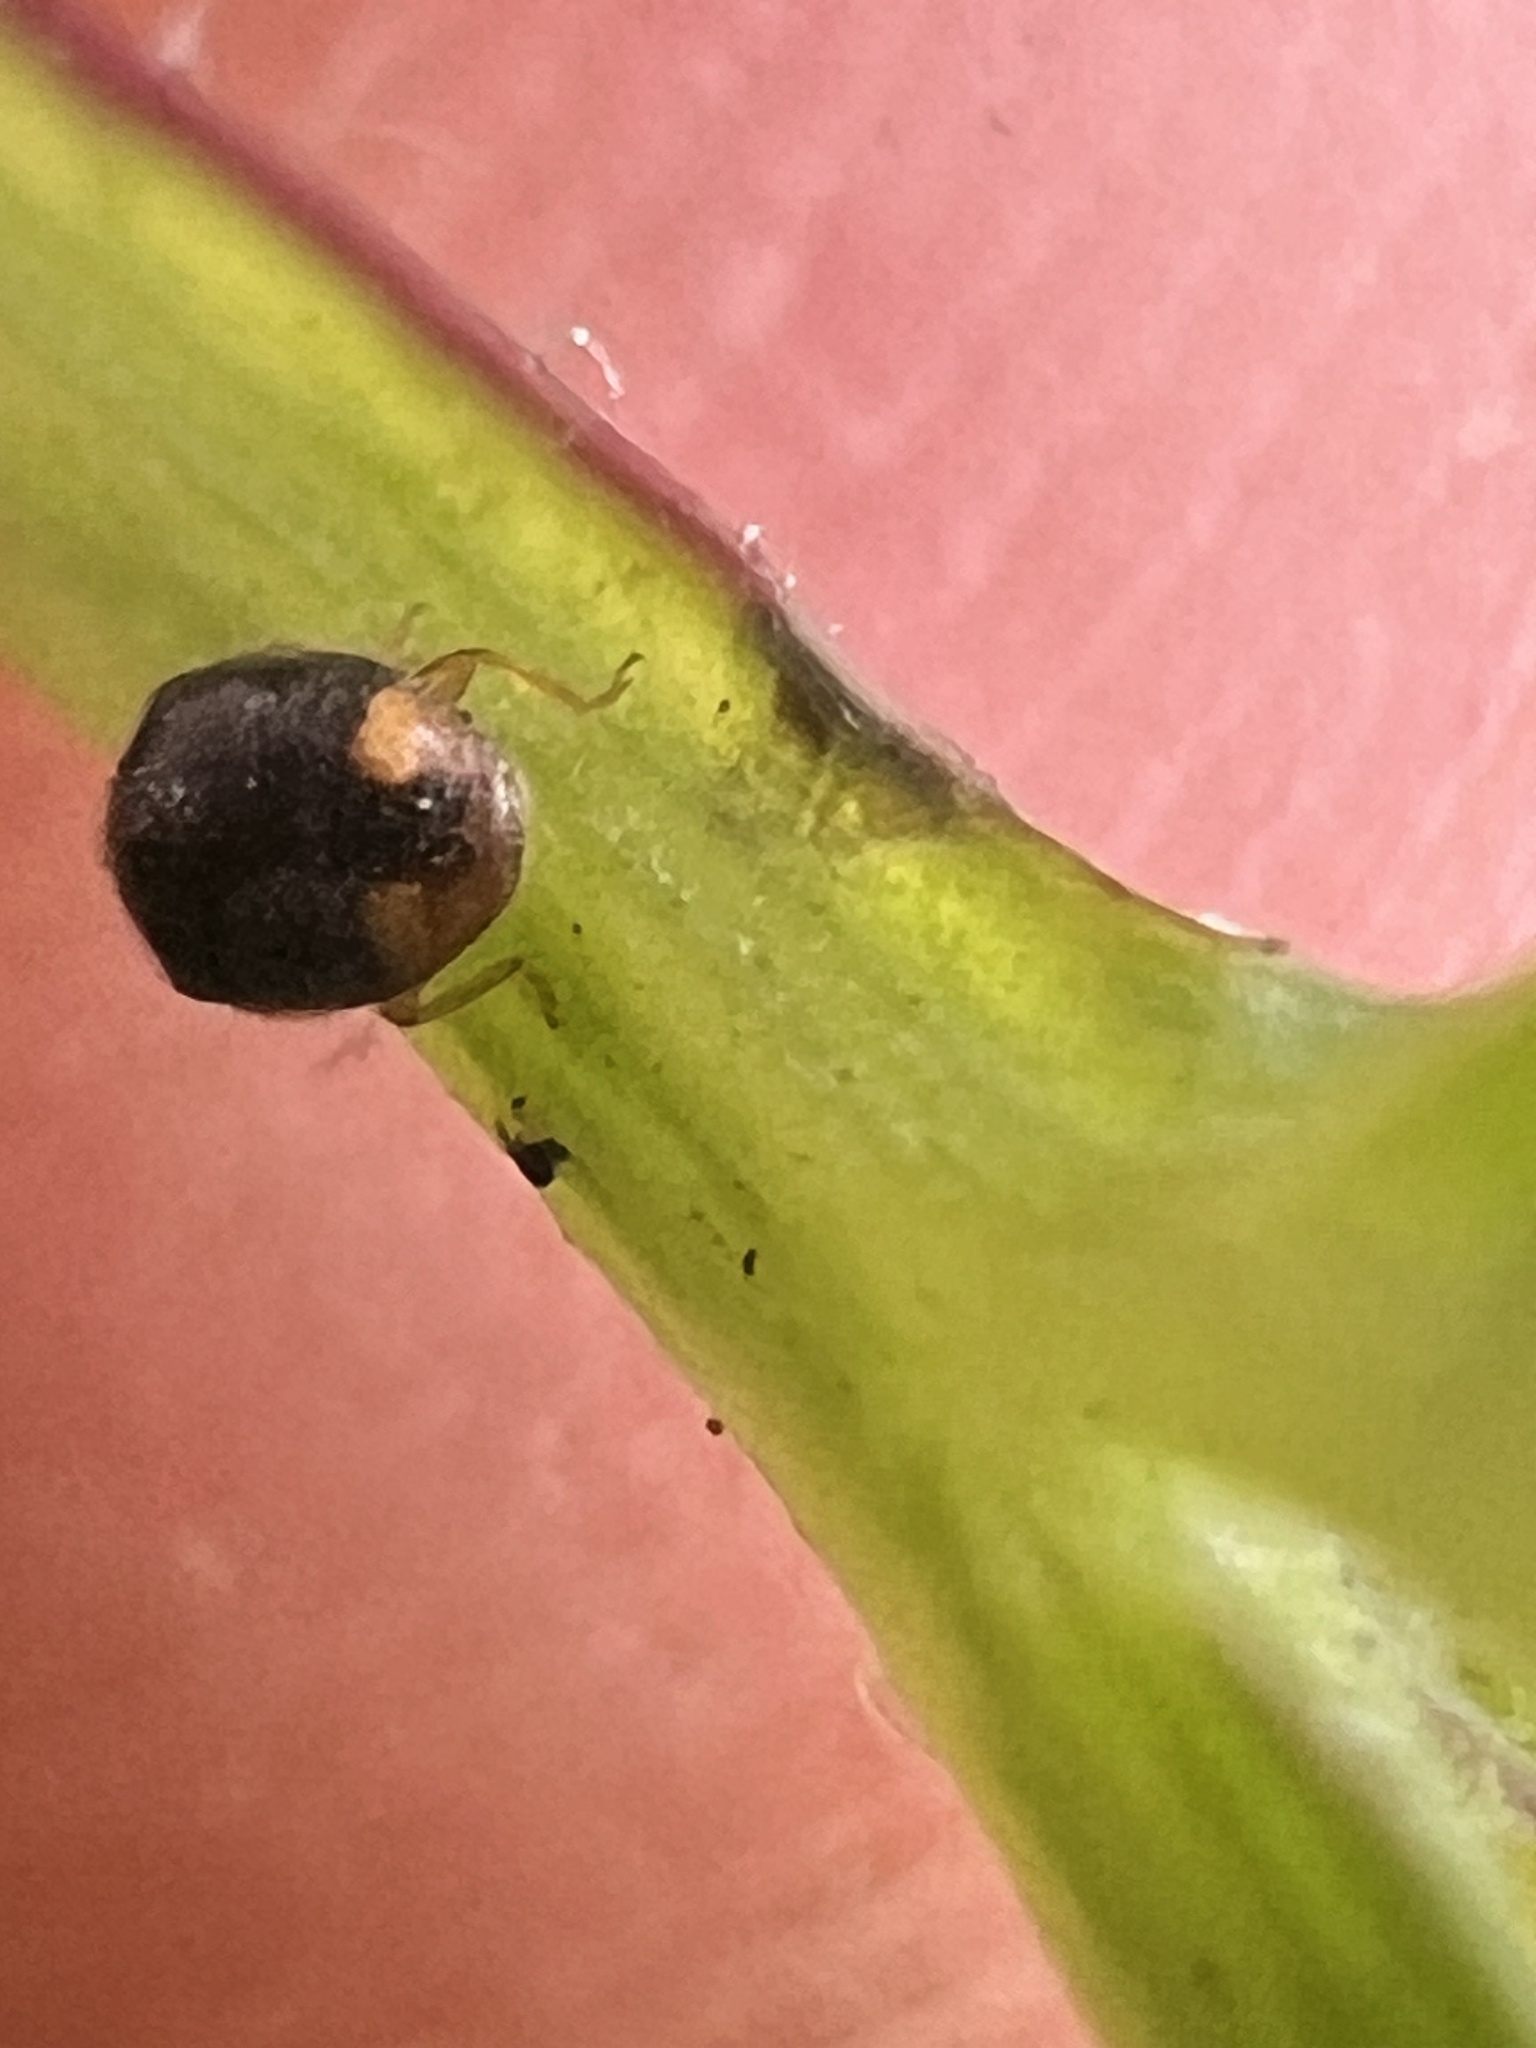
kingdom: Animalia
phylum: Arthropoda
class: Insecta
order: Coleoptera
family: Coccinellidae
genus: Cryptolaemus
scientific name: Cryptolaemus montrouzieri
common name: Mealybug destroyer
